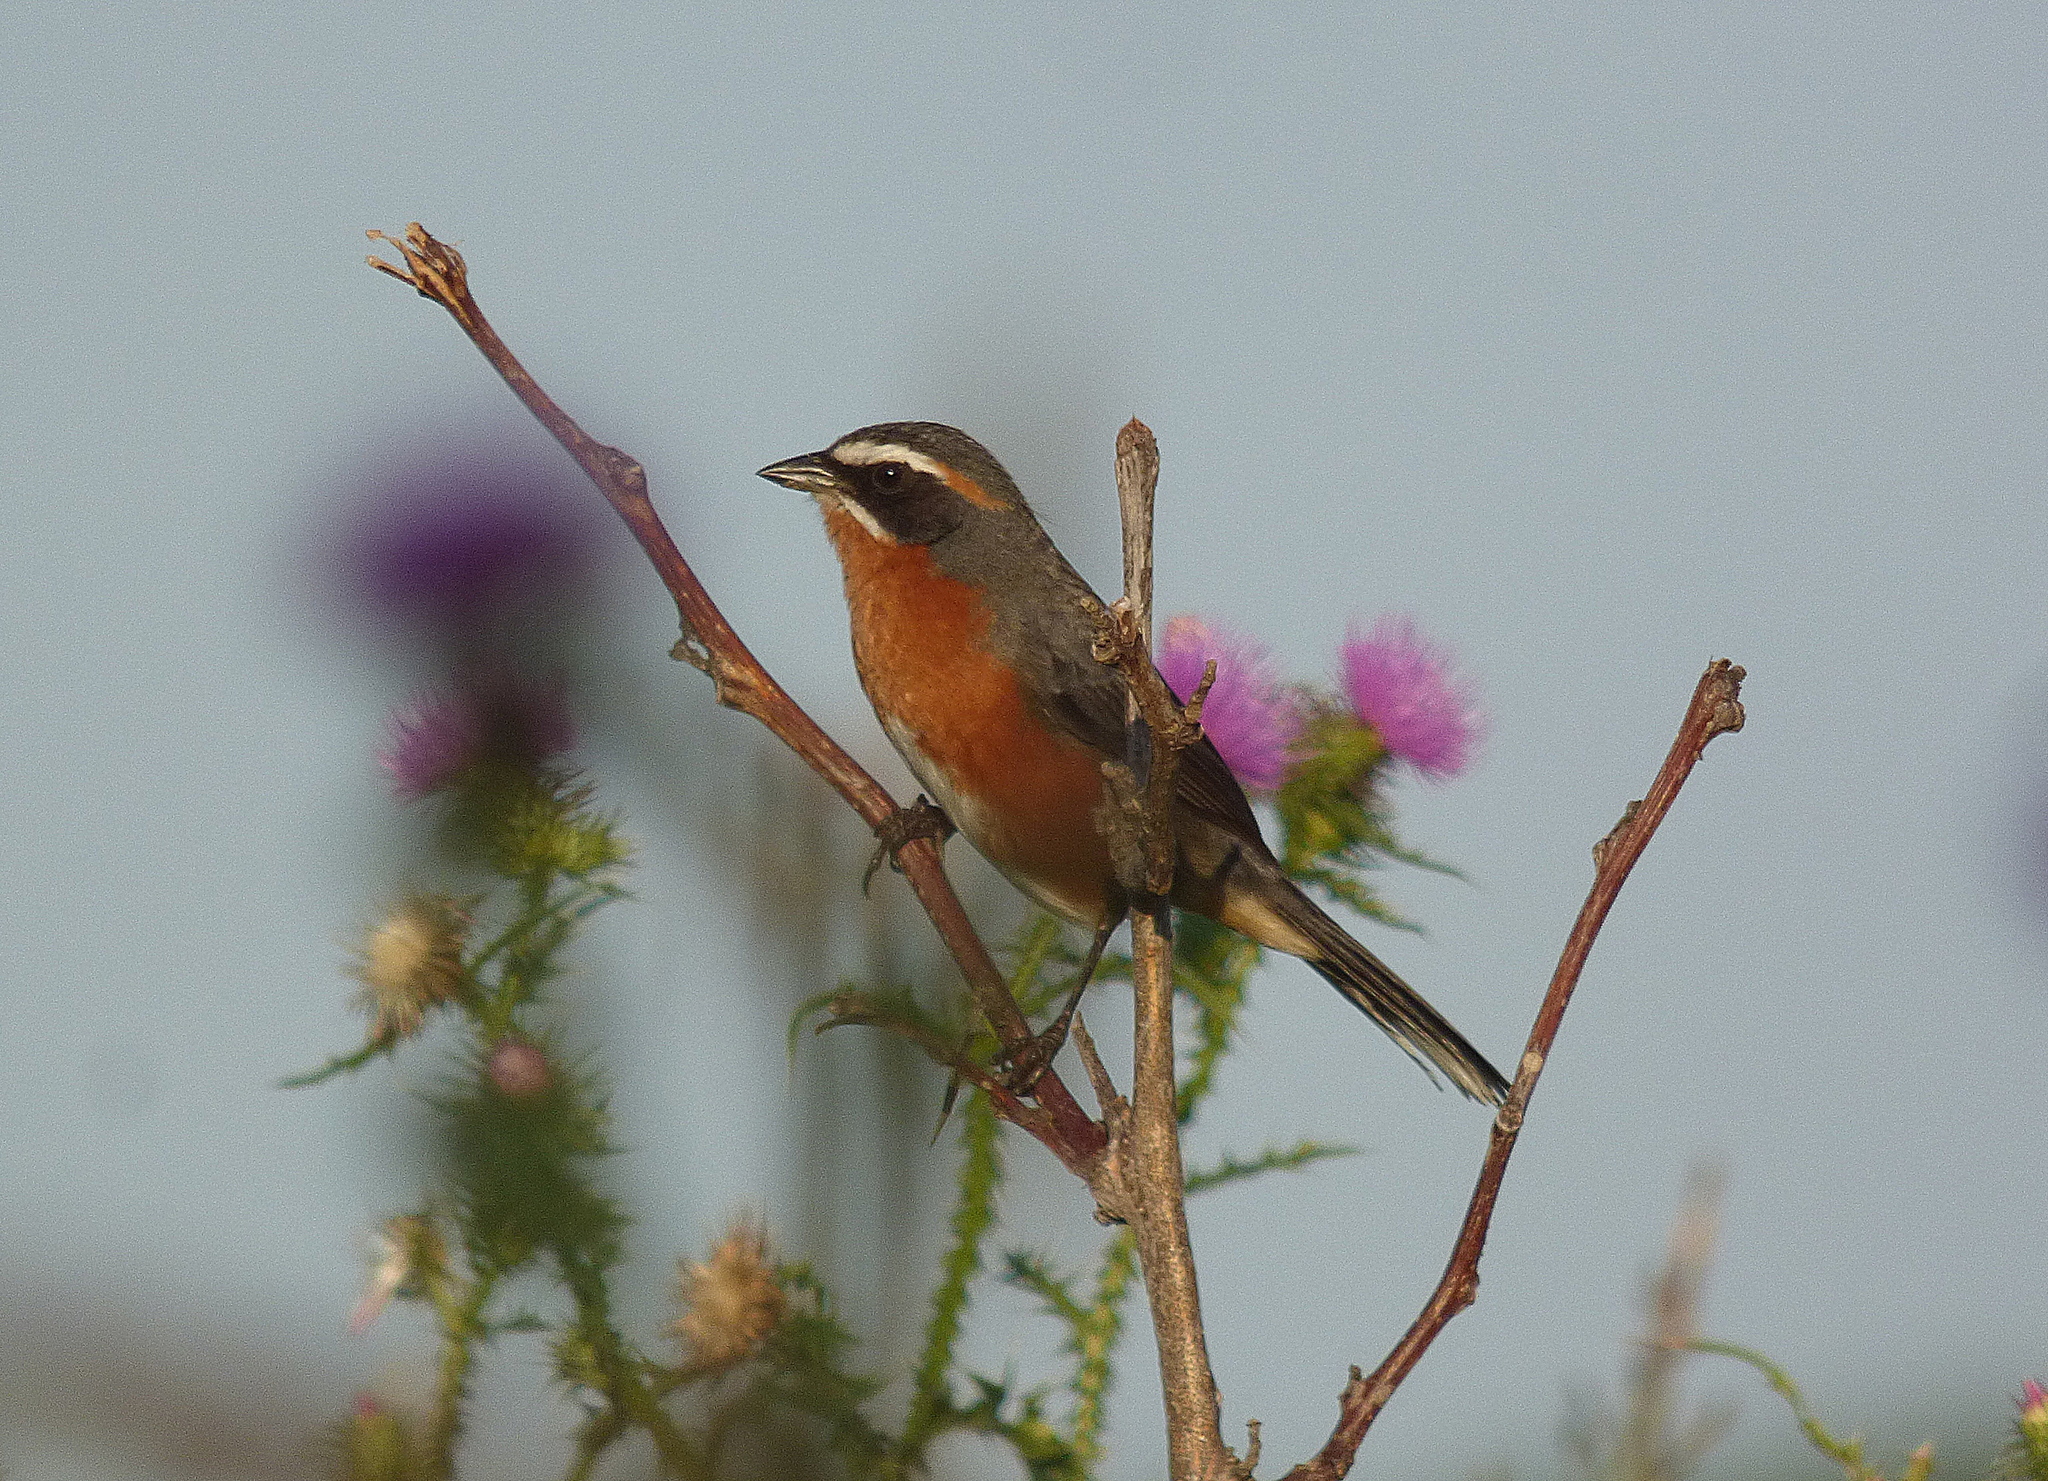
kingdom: Animalia
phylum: Chordata
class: Aves
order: Passeriformes
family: Thraupidae
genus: Poospiza
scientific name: Poospiza nigrorufa
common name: Black-and-rufous warbling finch
